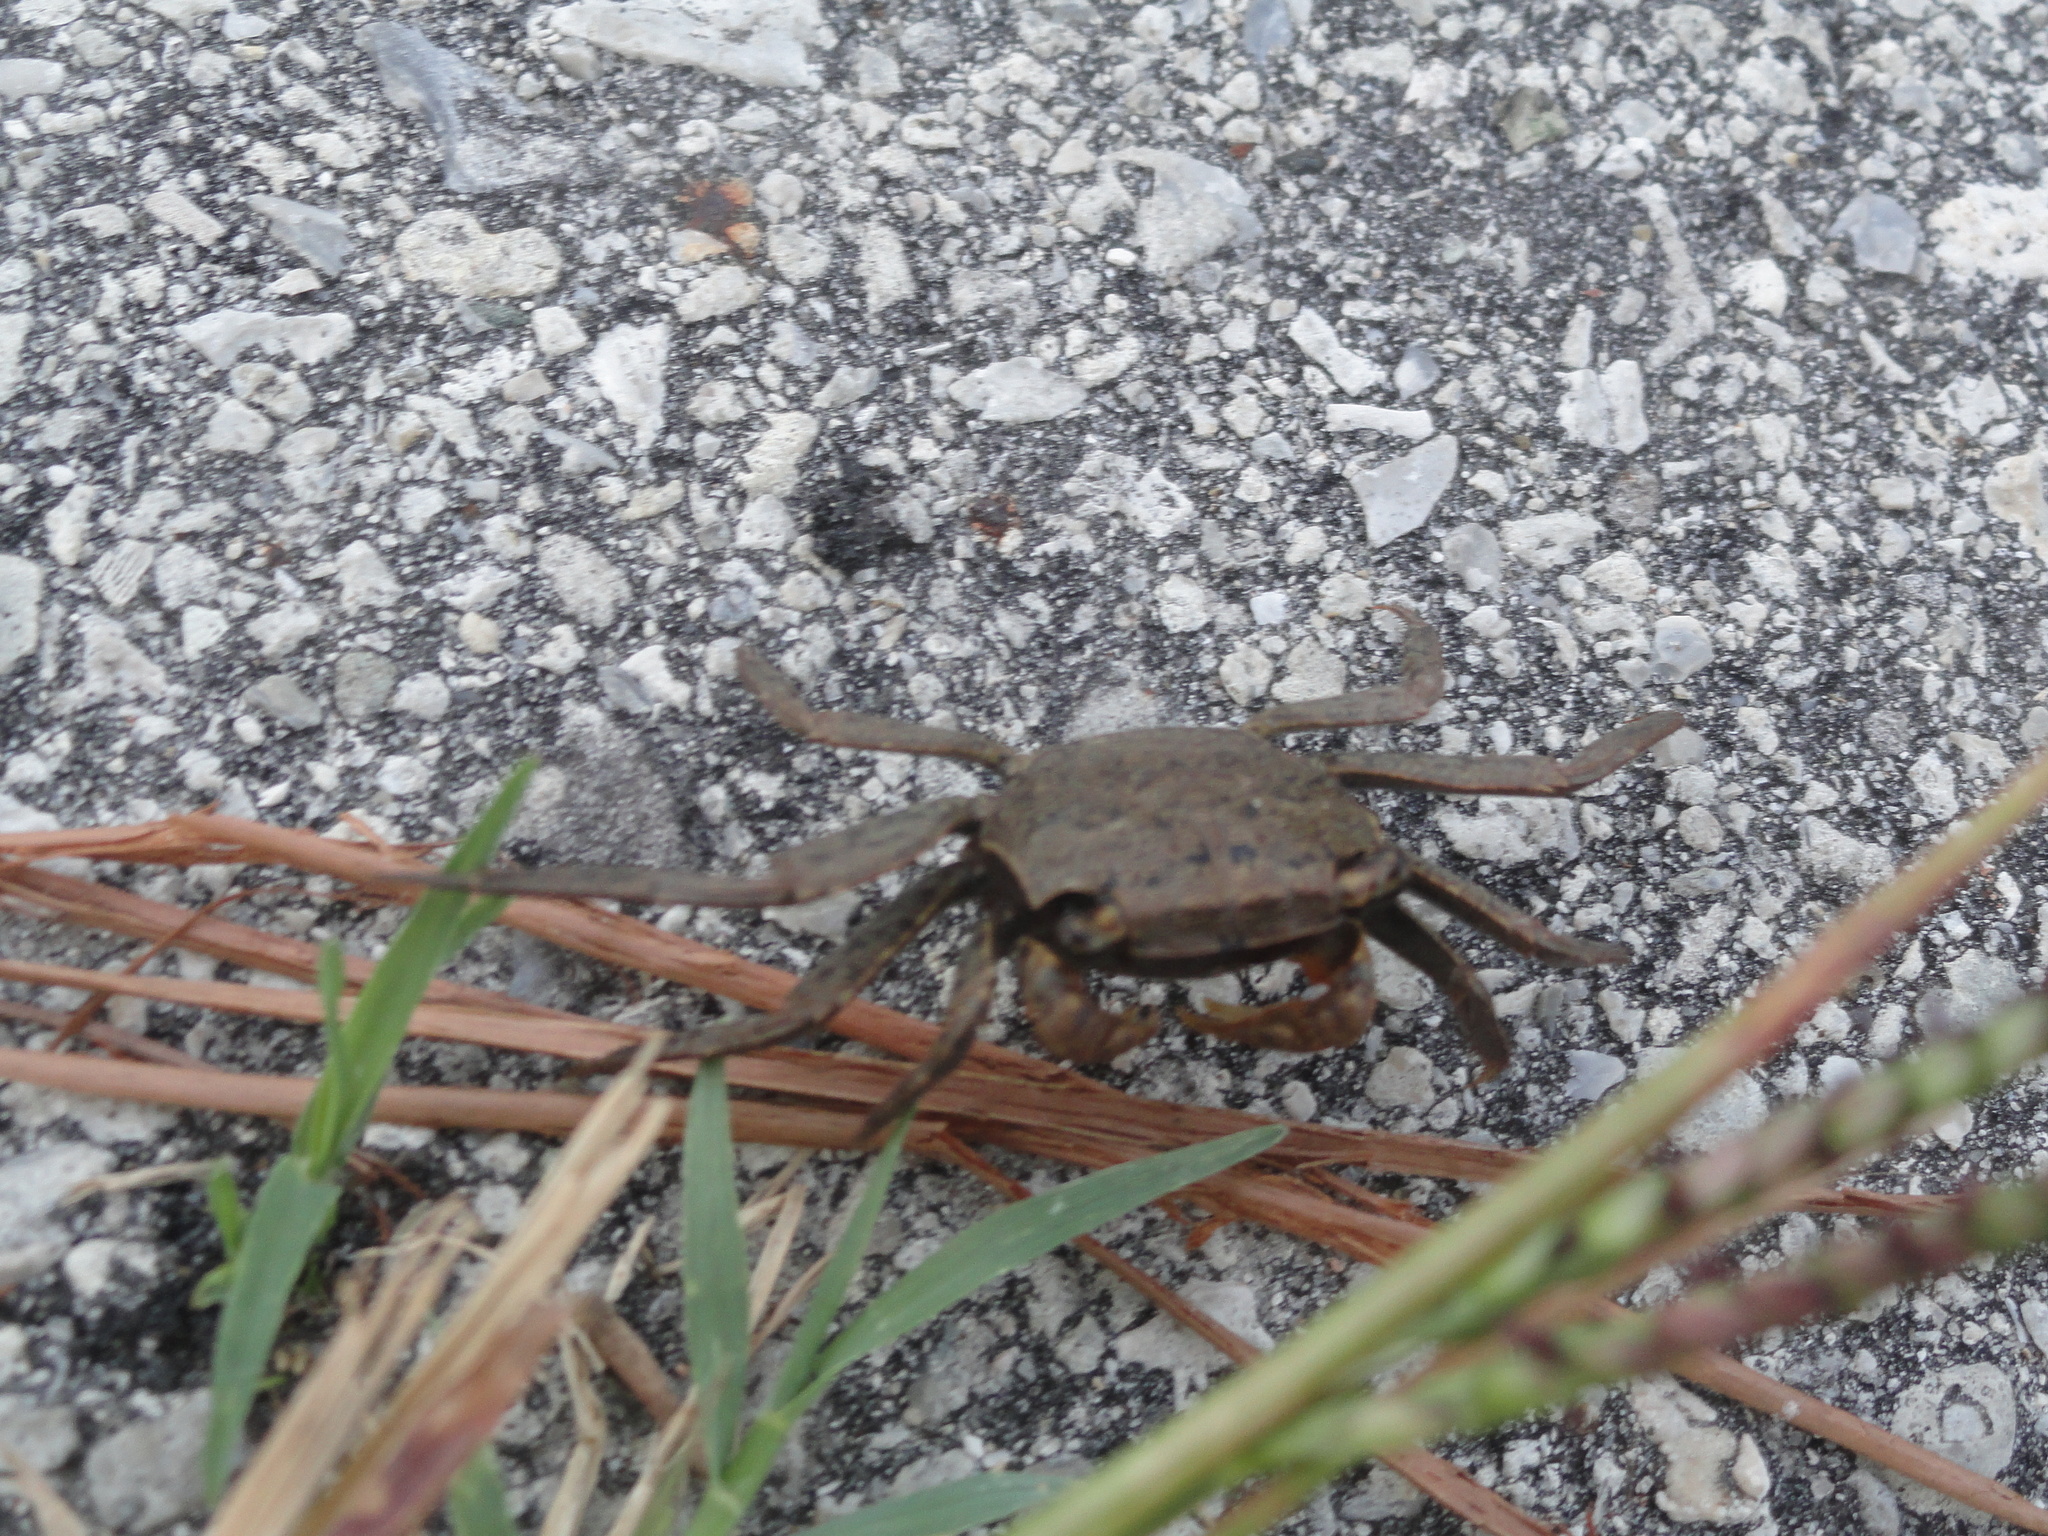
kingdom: Animalia
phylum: Arthropoda
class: Malacostraca
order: Decapoda
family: Sesarmidae
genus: Armases
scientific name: Armases cinereum
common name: Squareback marsh crab
